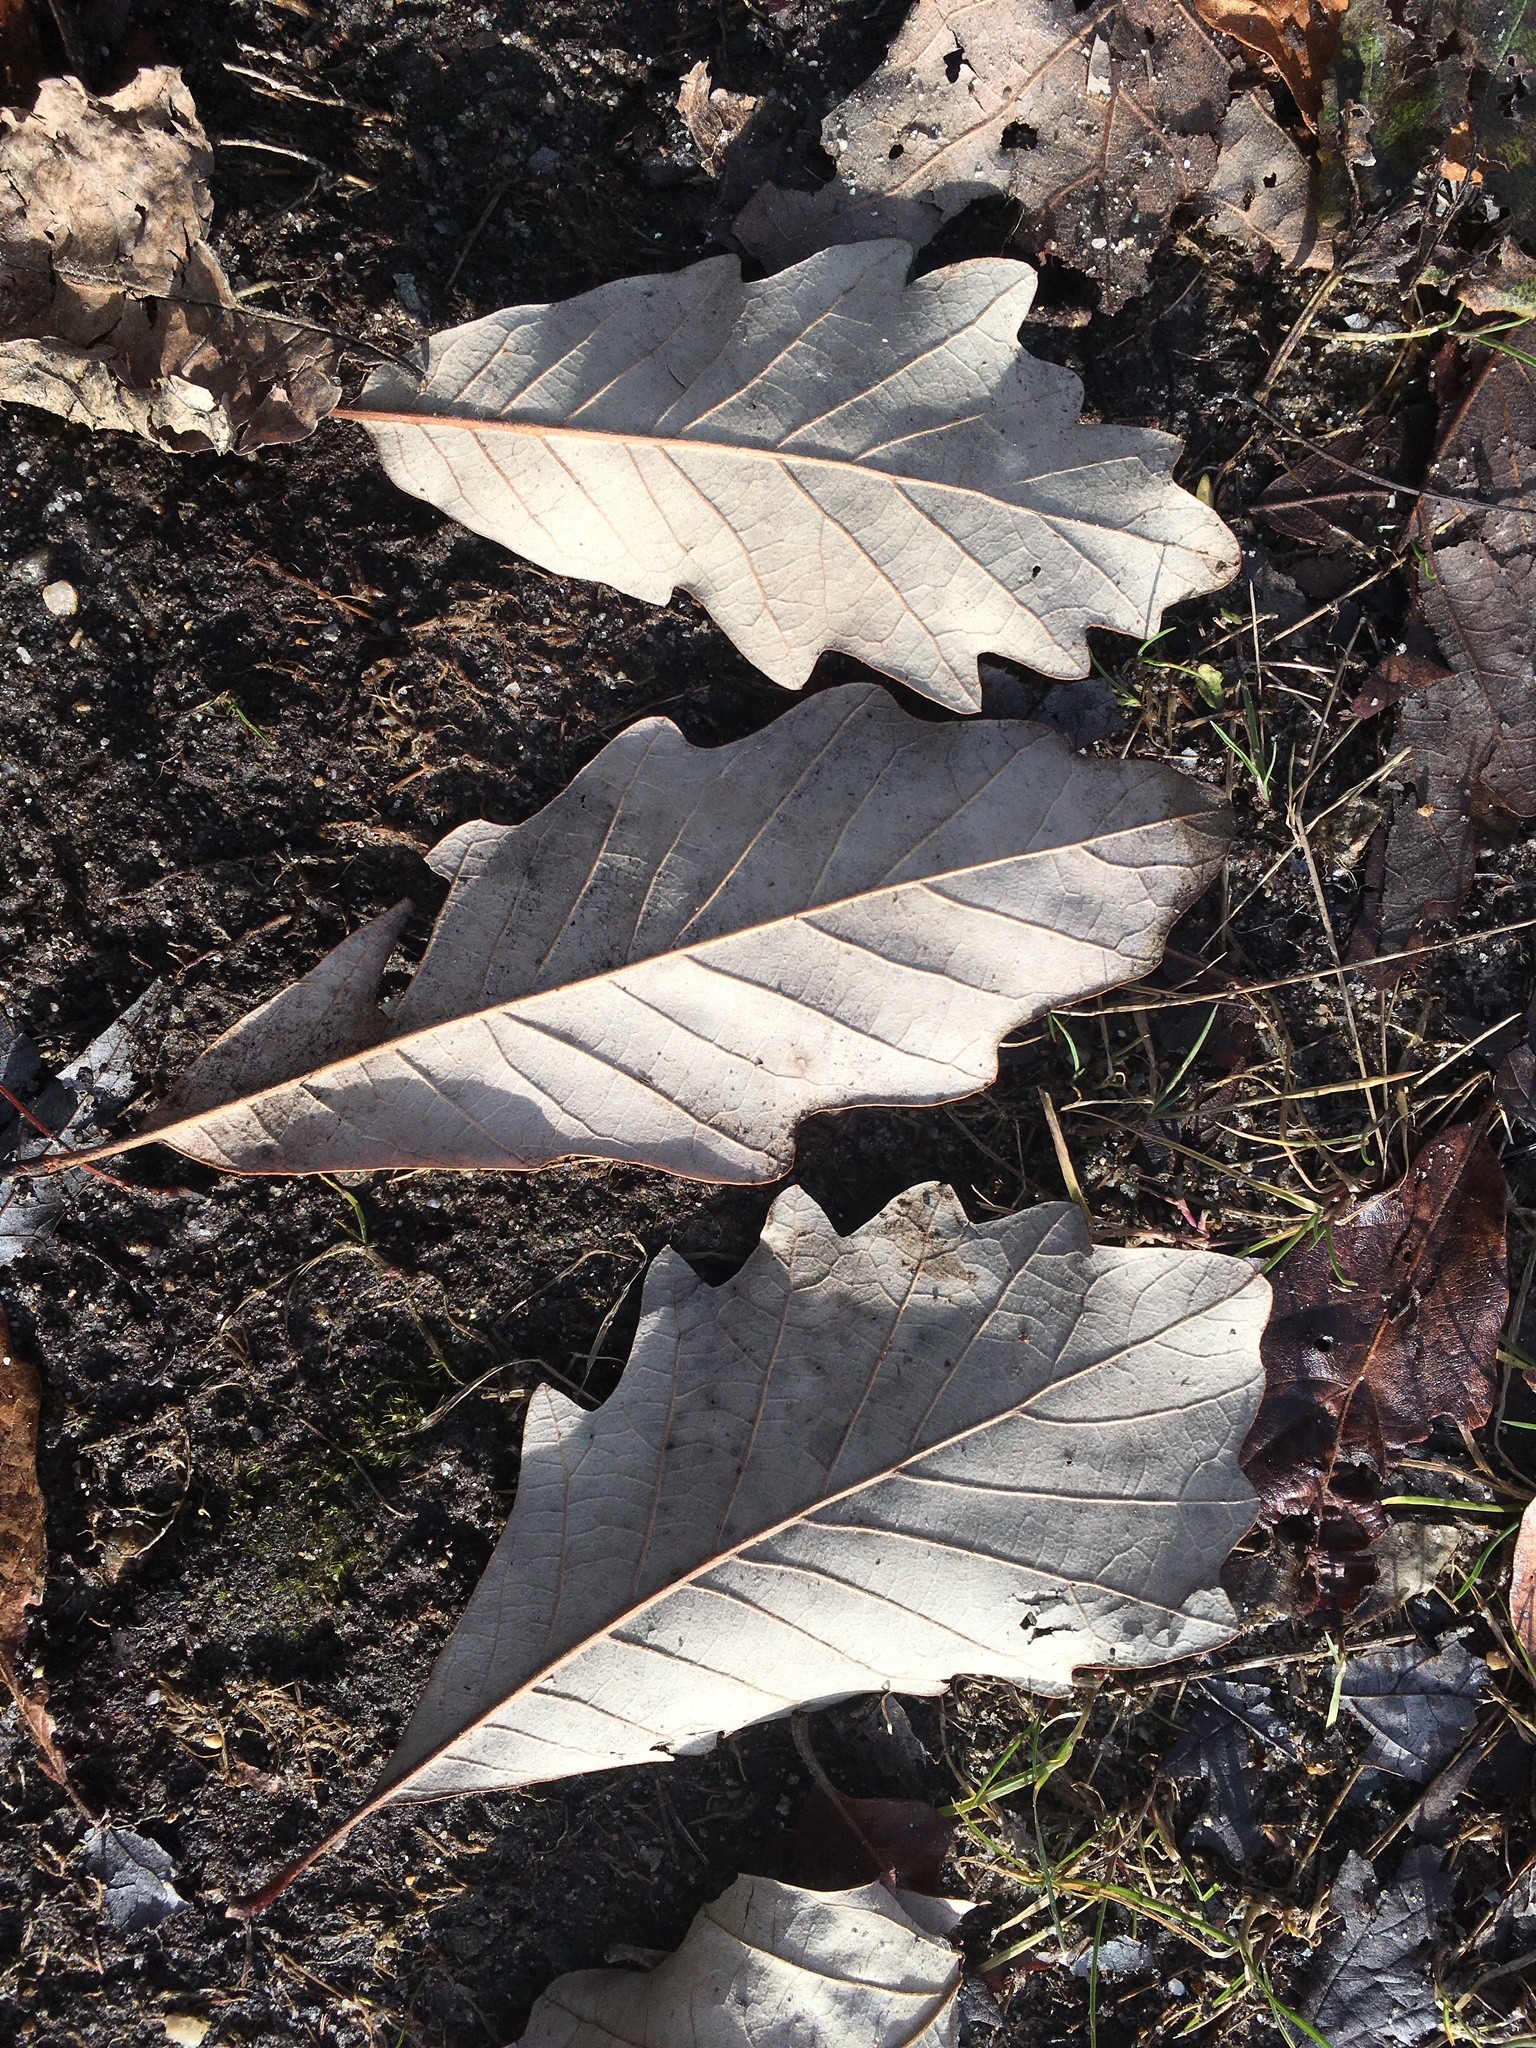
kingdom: Plantae
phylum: Tracheophyta
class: Magnoliopsida
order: Fagales
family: Fagaceae
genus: Quercus
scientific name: Quercus bicolor
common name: Swamp white oak
